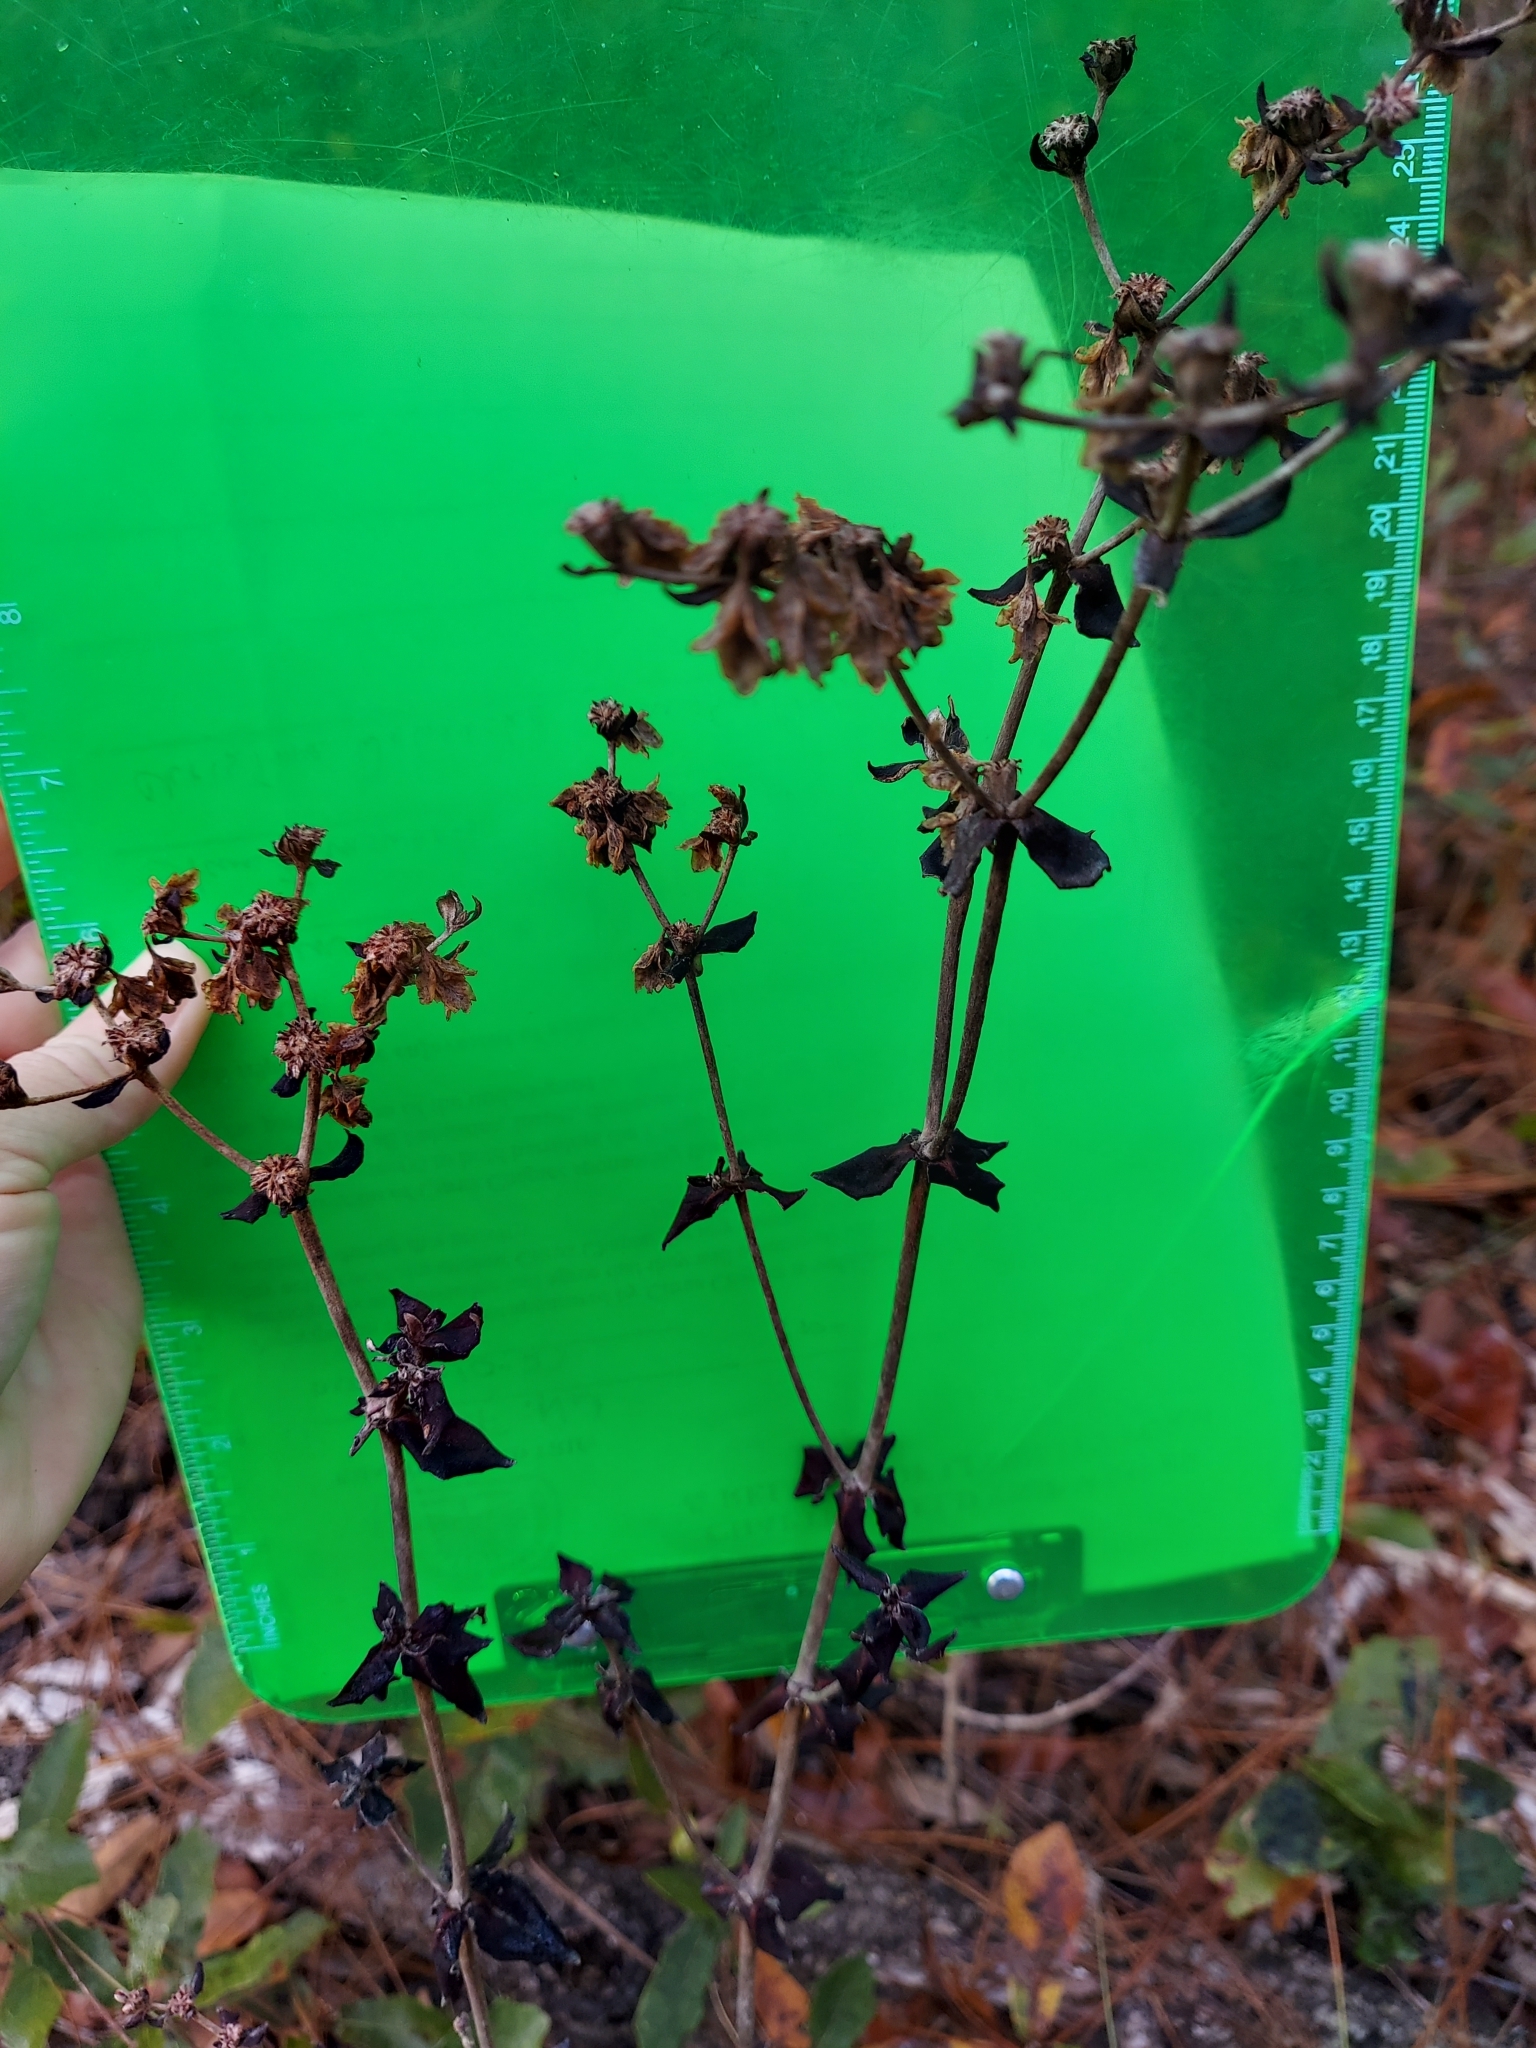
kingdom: Plantae
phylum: Tracheophyta
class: Magnoliopsida
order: Caryophyllales
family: Polygonaceae
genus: Eriogonum
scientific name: Eriogonum tomentosum
